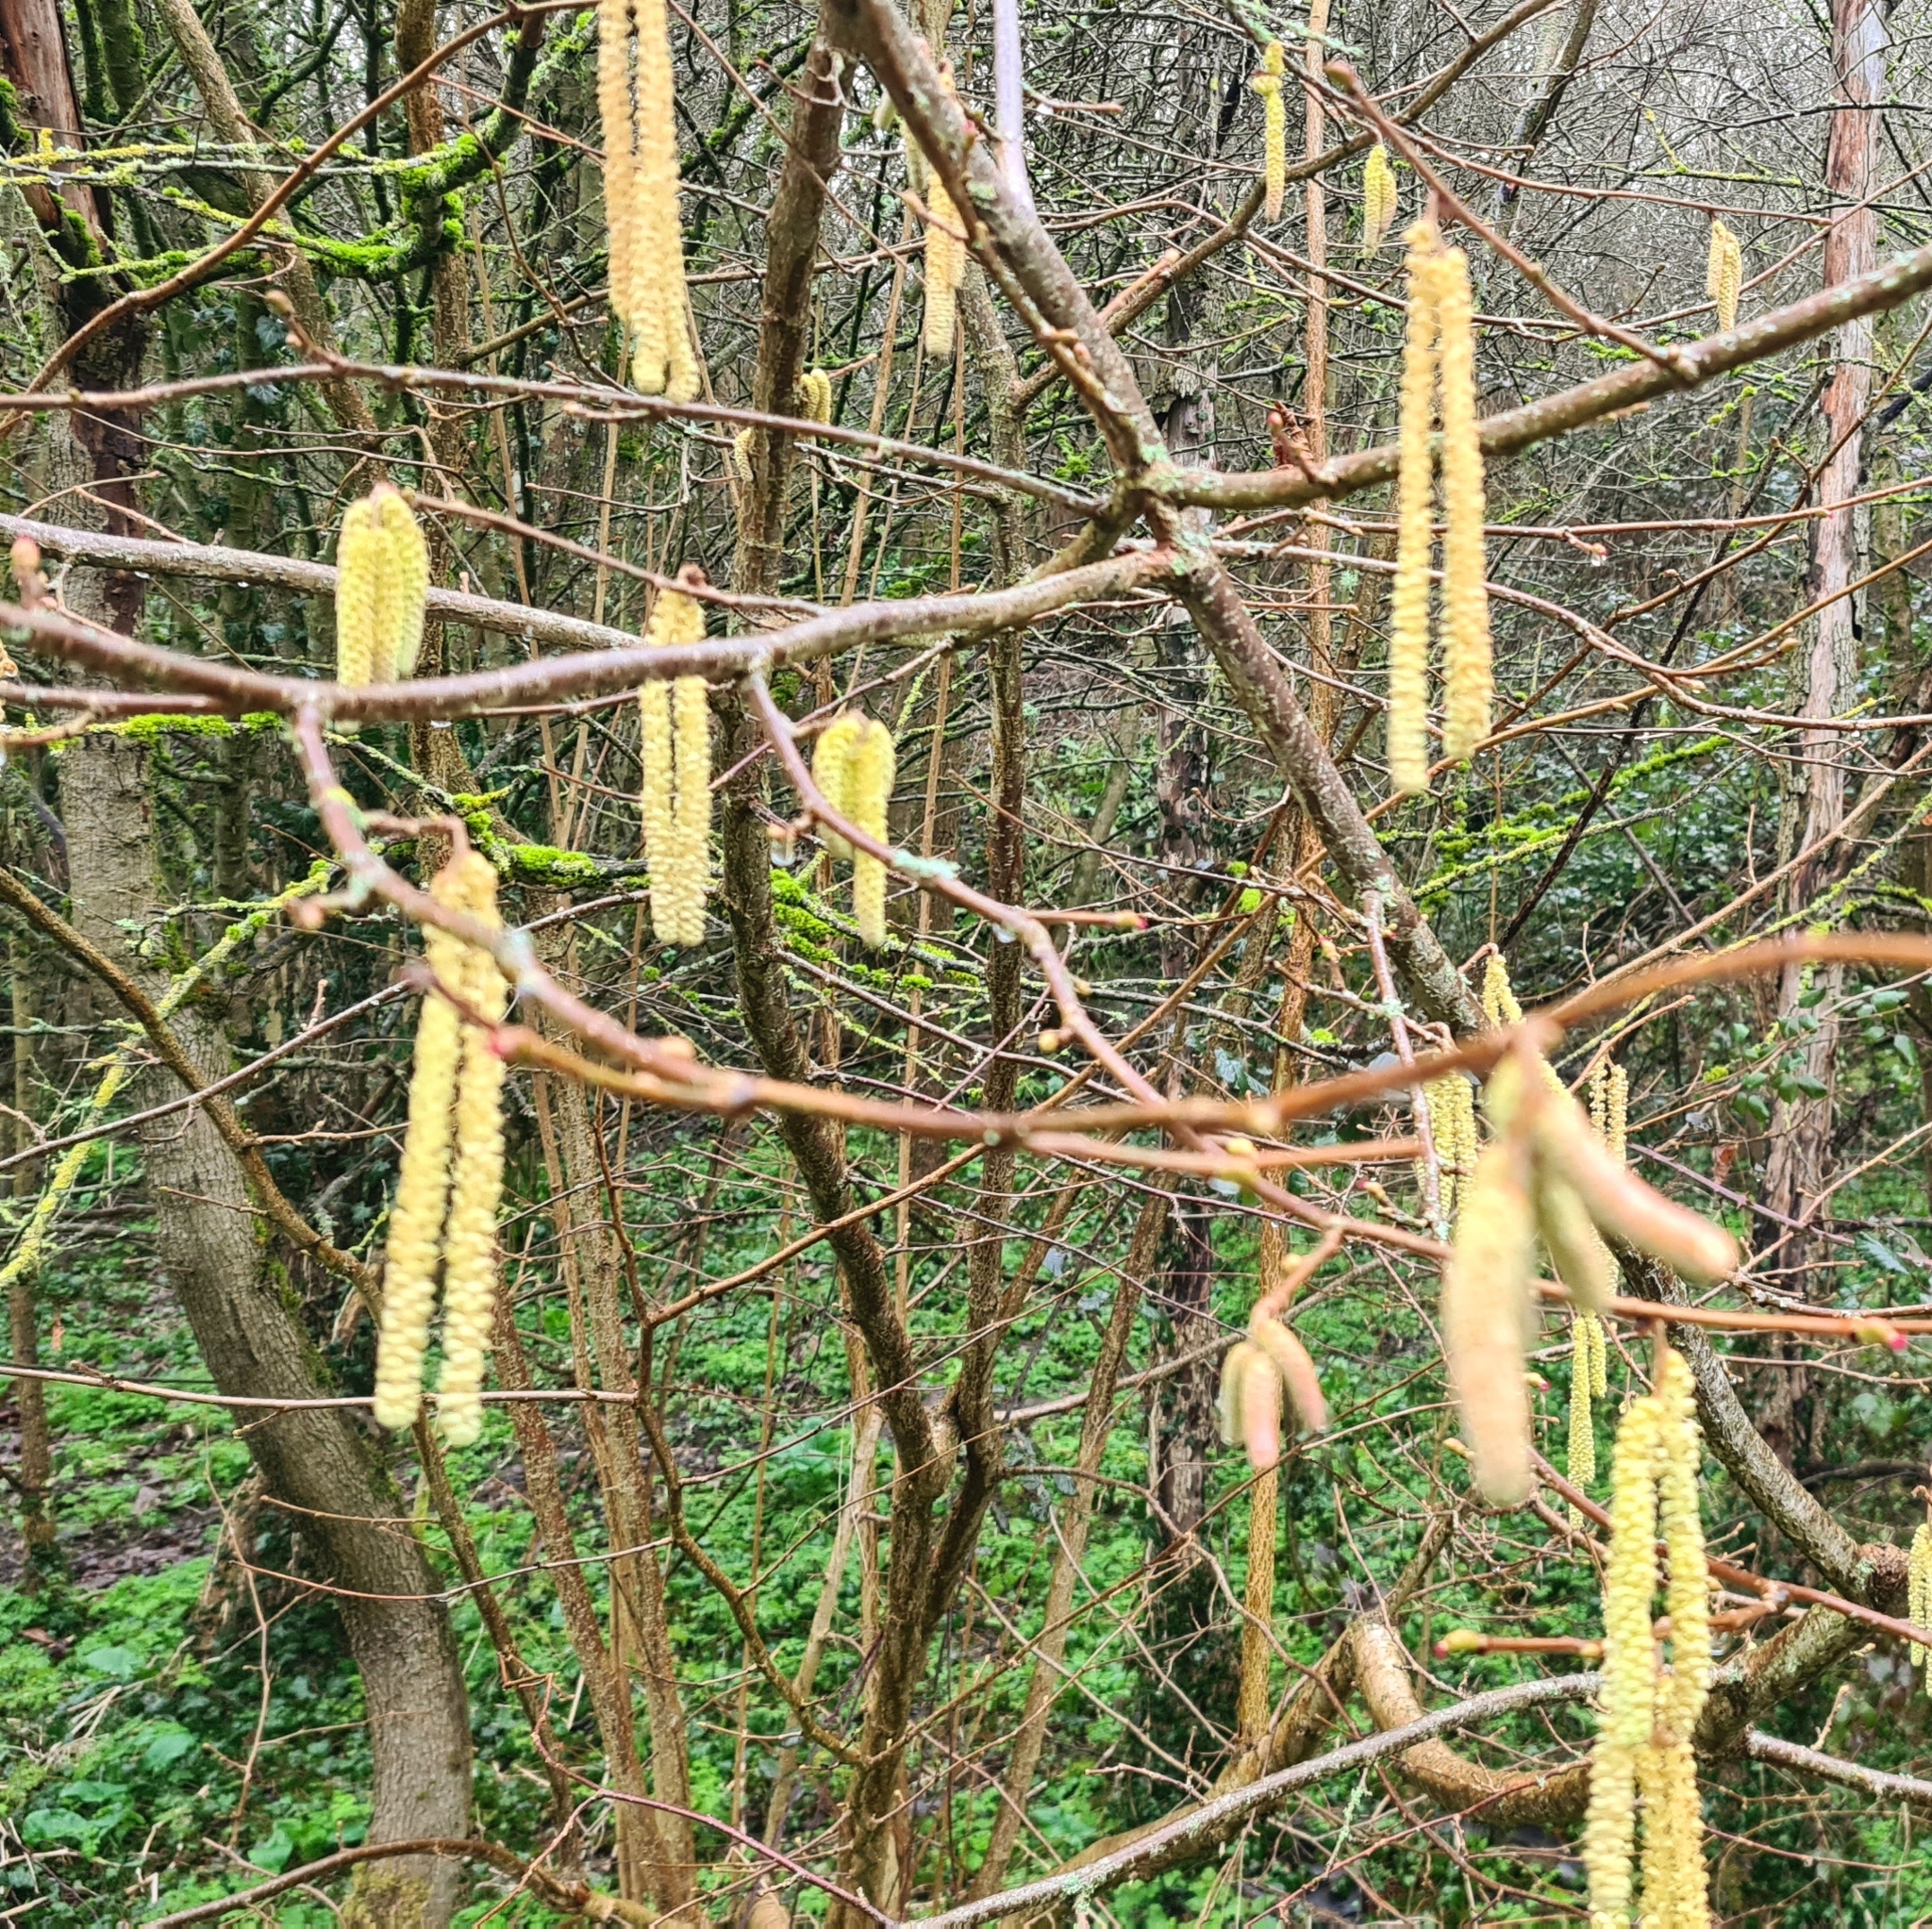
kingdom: Plantae
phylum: Tracheophyta
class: Magnoliopsida
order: Fagales
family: Betulaceae
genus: Corylus
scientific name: Corylus avellana
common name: European hazel
